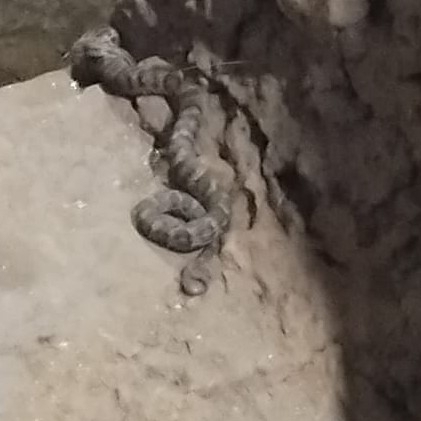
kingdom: Animalia
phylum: Chordata
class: Squamata
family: Viperidae
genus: Gloydius
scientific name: Gloydius himalayanus
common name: Himalayan pit-viper
